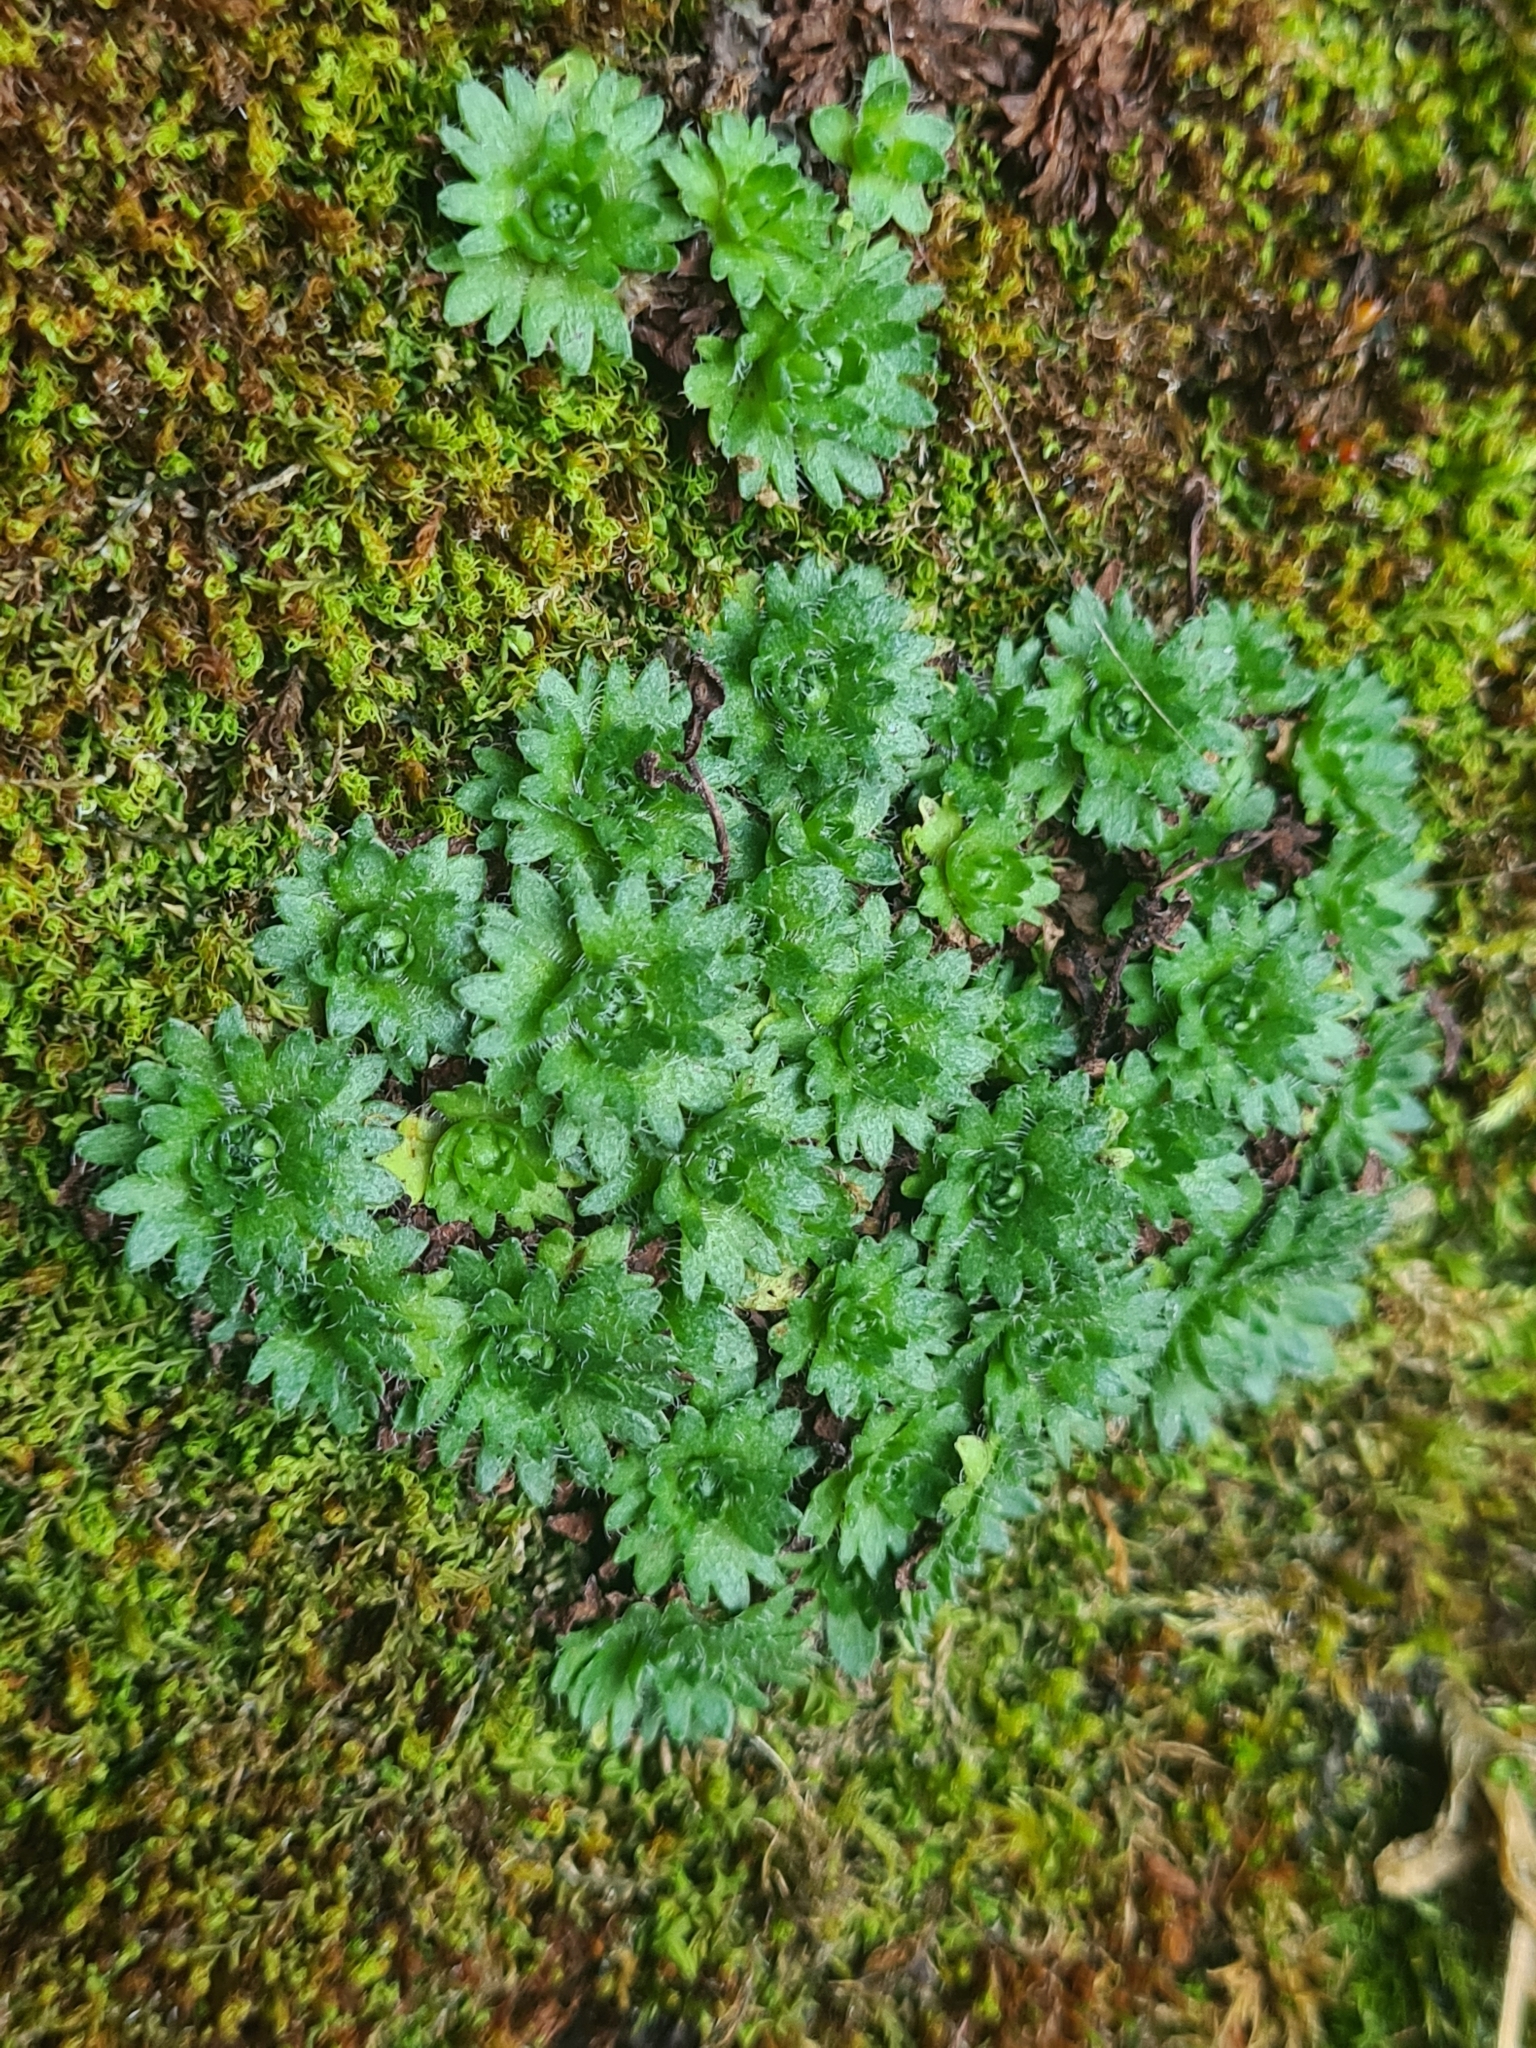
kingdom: Plantae
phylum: Tracheophyta
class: Magnoliopsida
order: Saxifragales
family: Saxifragaceae
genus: Saxifraga
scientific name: Saxifraga cespitosa
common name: Tufted saxifrage
